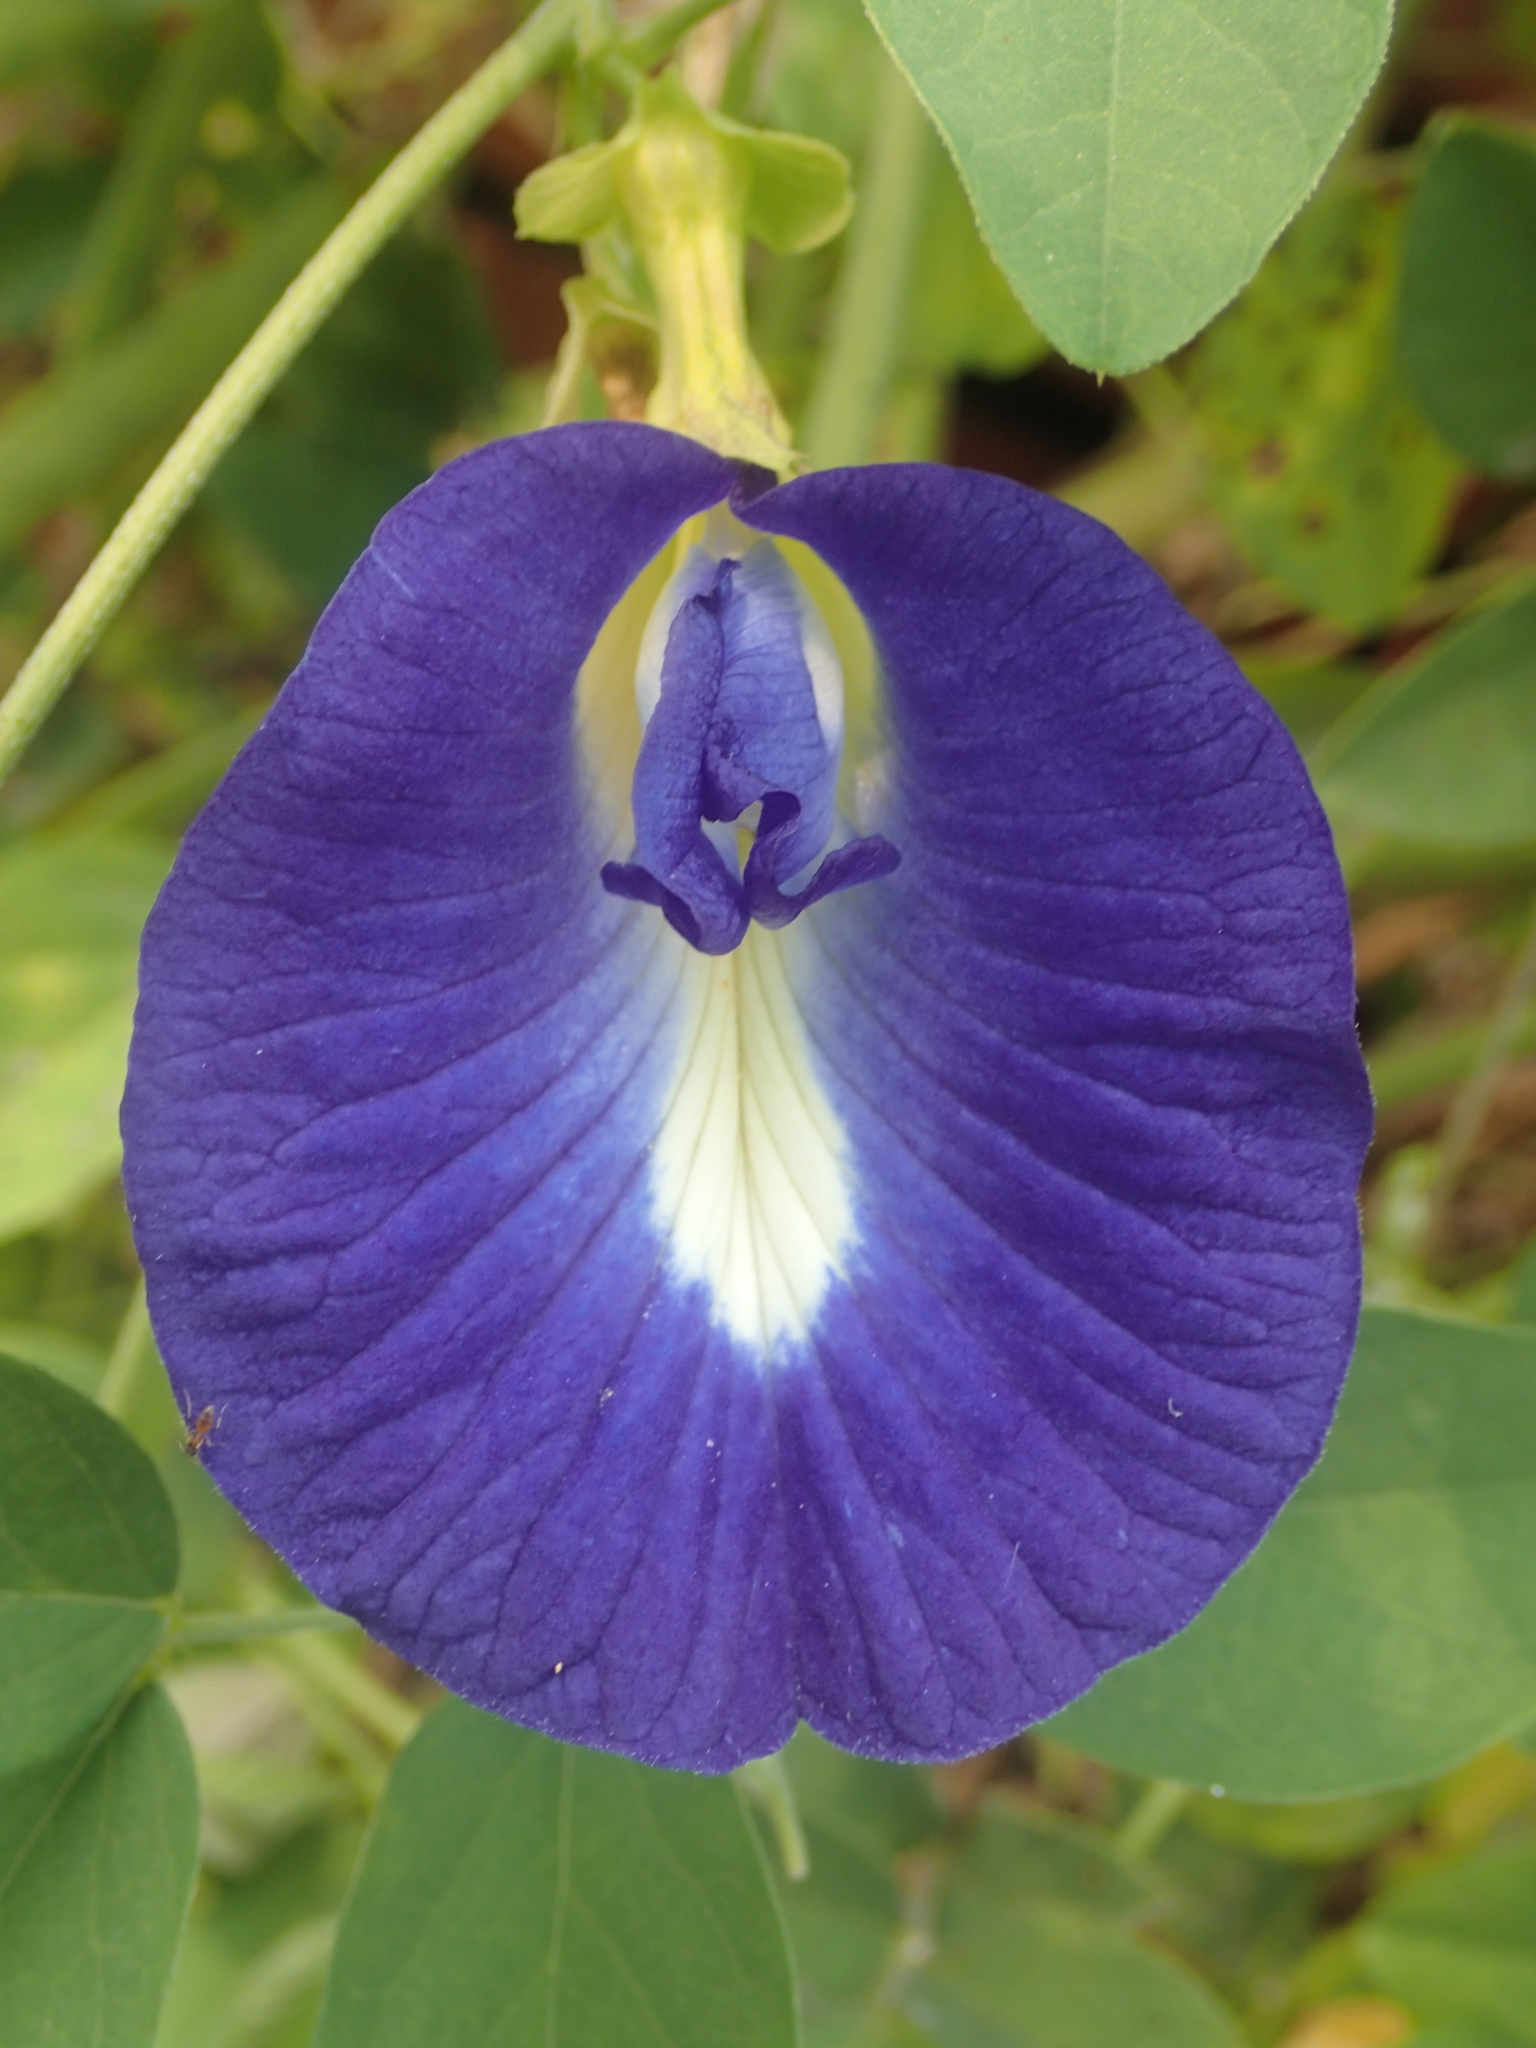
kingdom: Plantae
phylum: Tracheophyta
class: Magnoliopsida
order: Fabales
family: Fabaceae
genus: Clitoria
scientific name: Clitoria ternatea
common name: Asian pigeonwings
